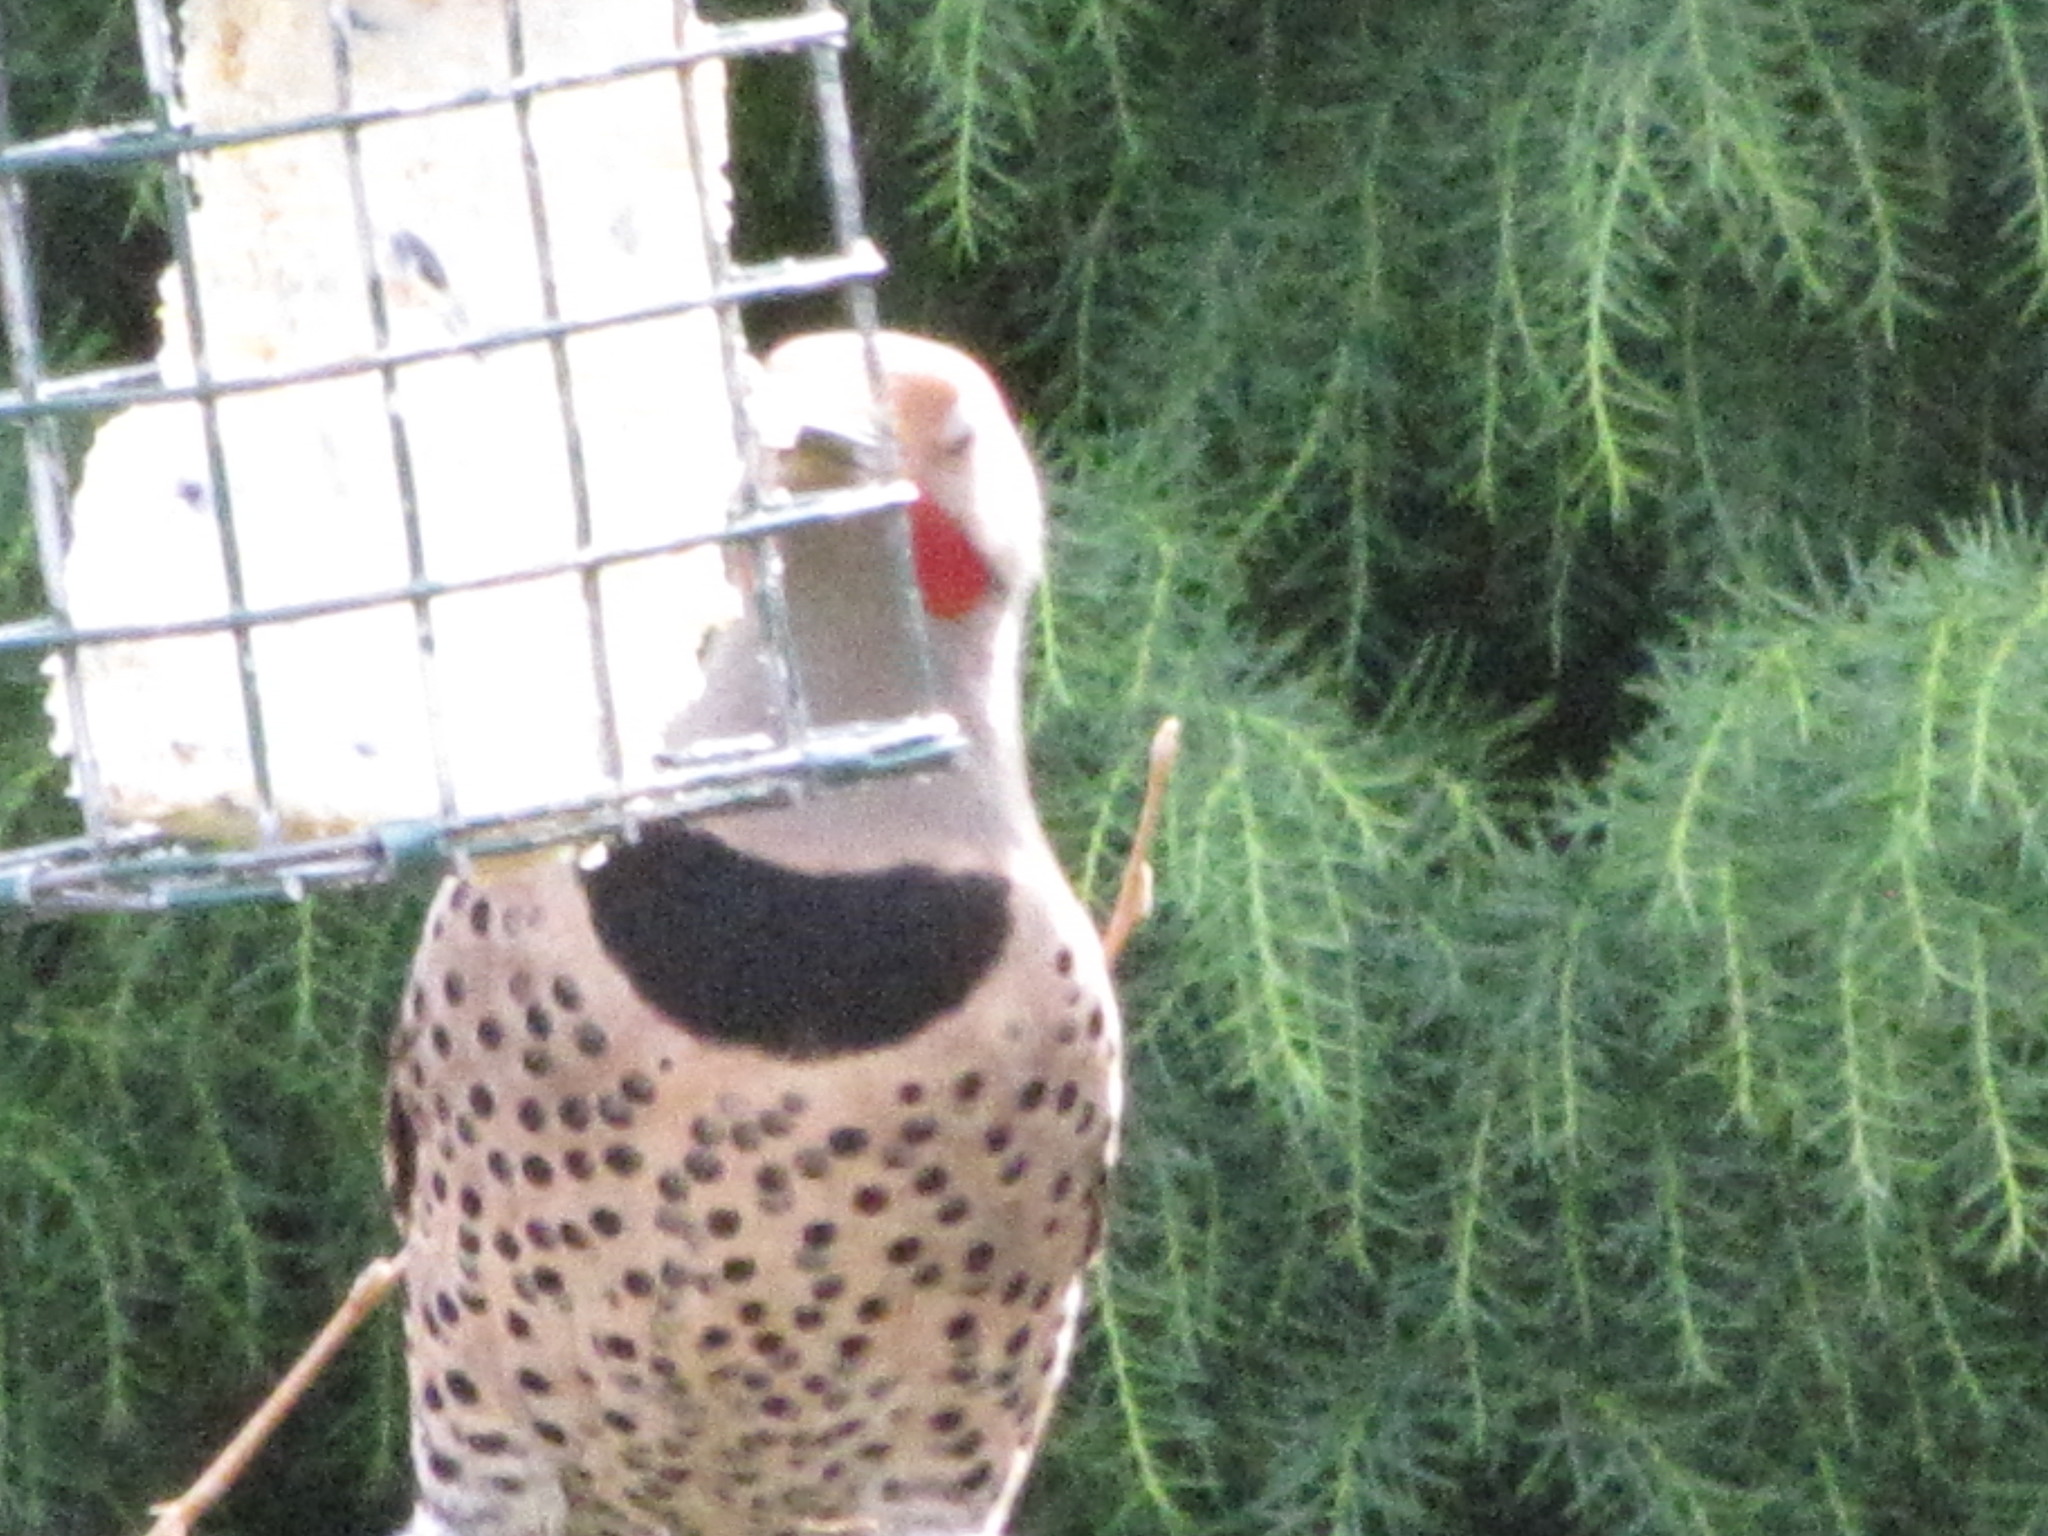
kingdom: Animalia
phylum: Chordata
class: Aves
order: Piciformes
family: Picidae
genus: Colaptes
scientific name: Colaptes auratus
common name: Northern flicker
